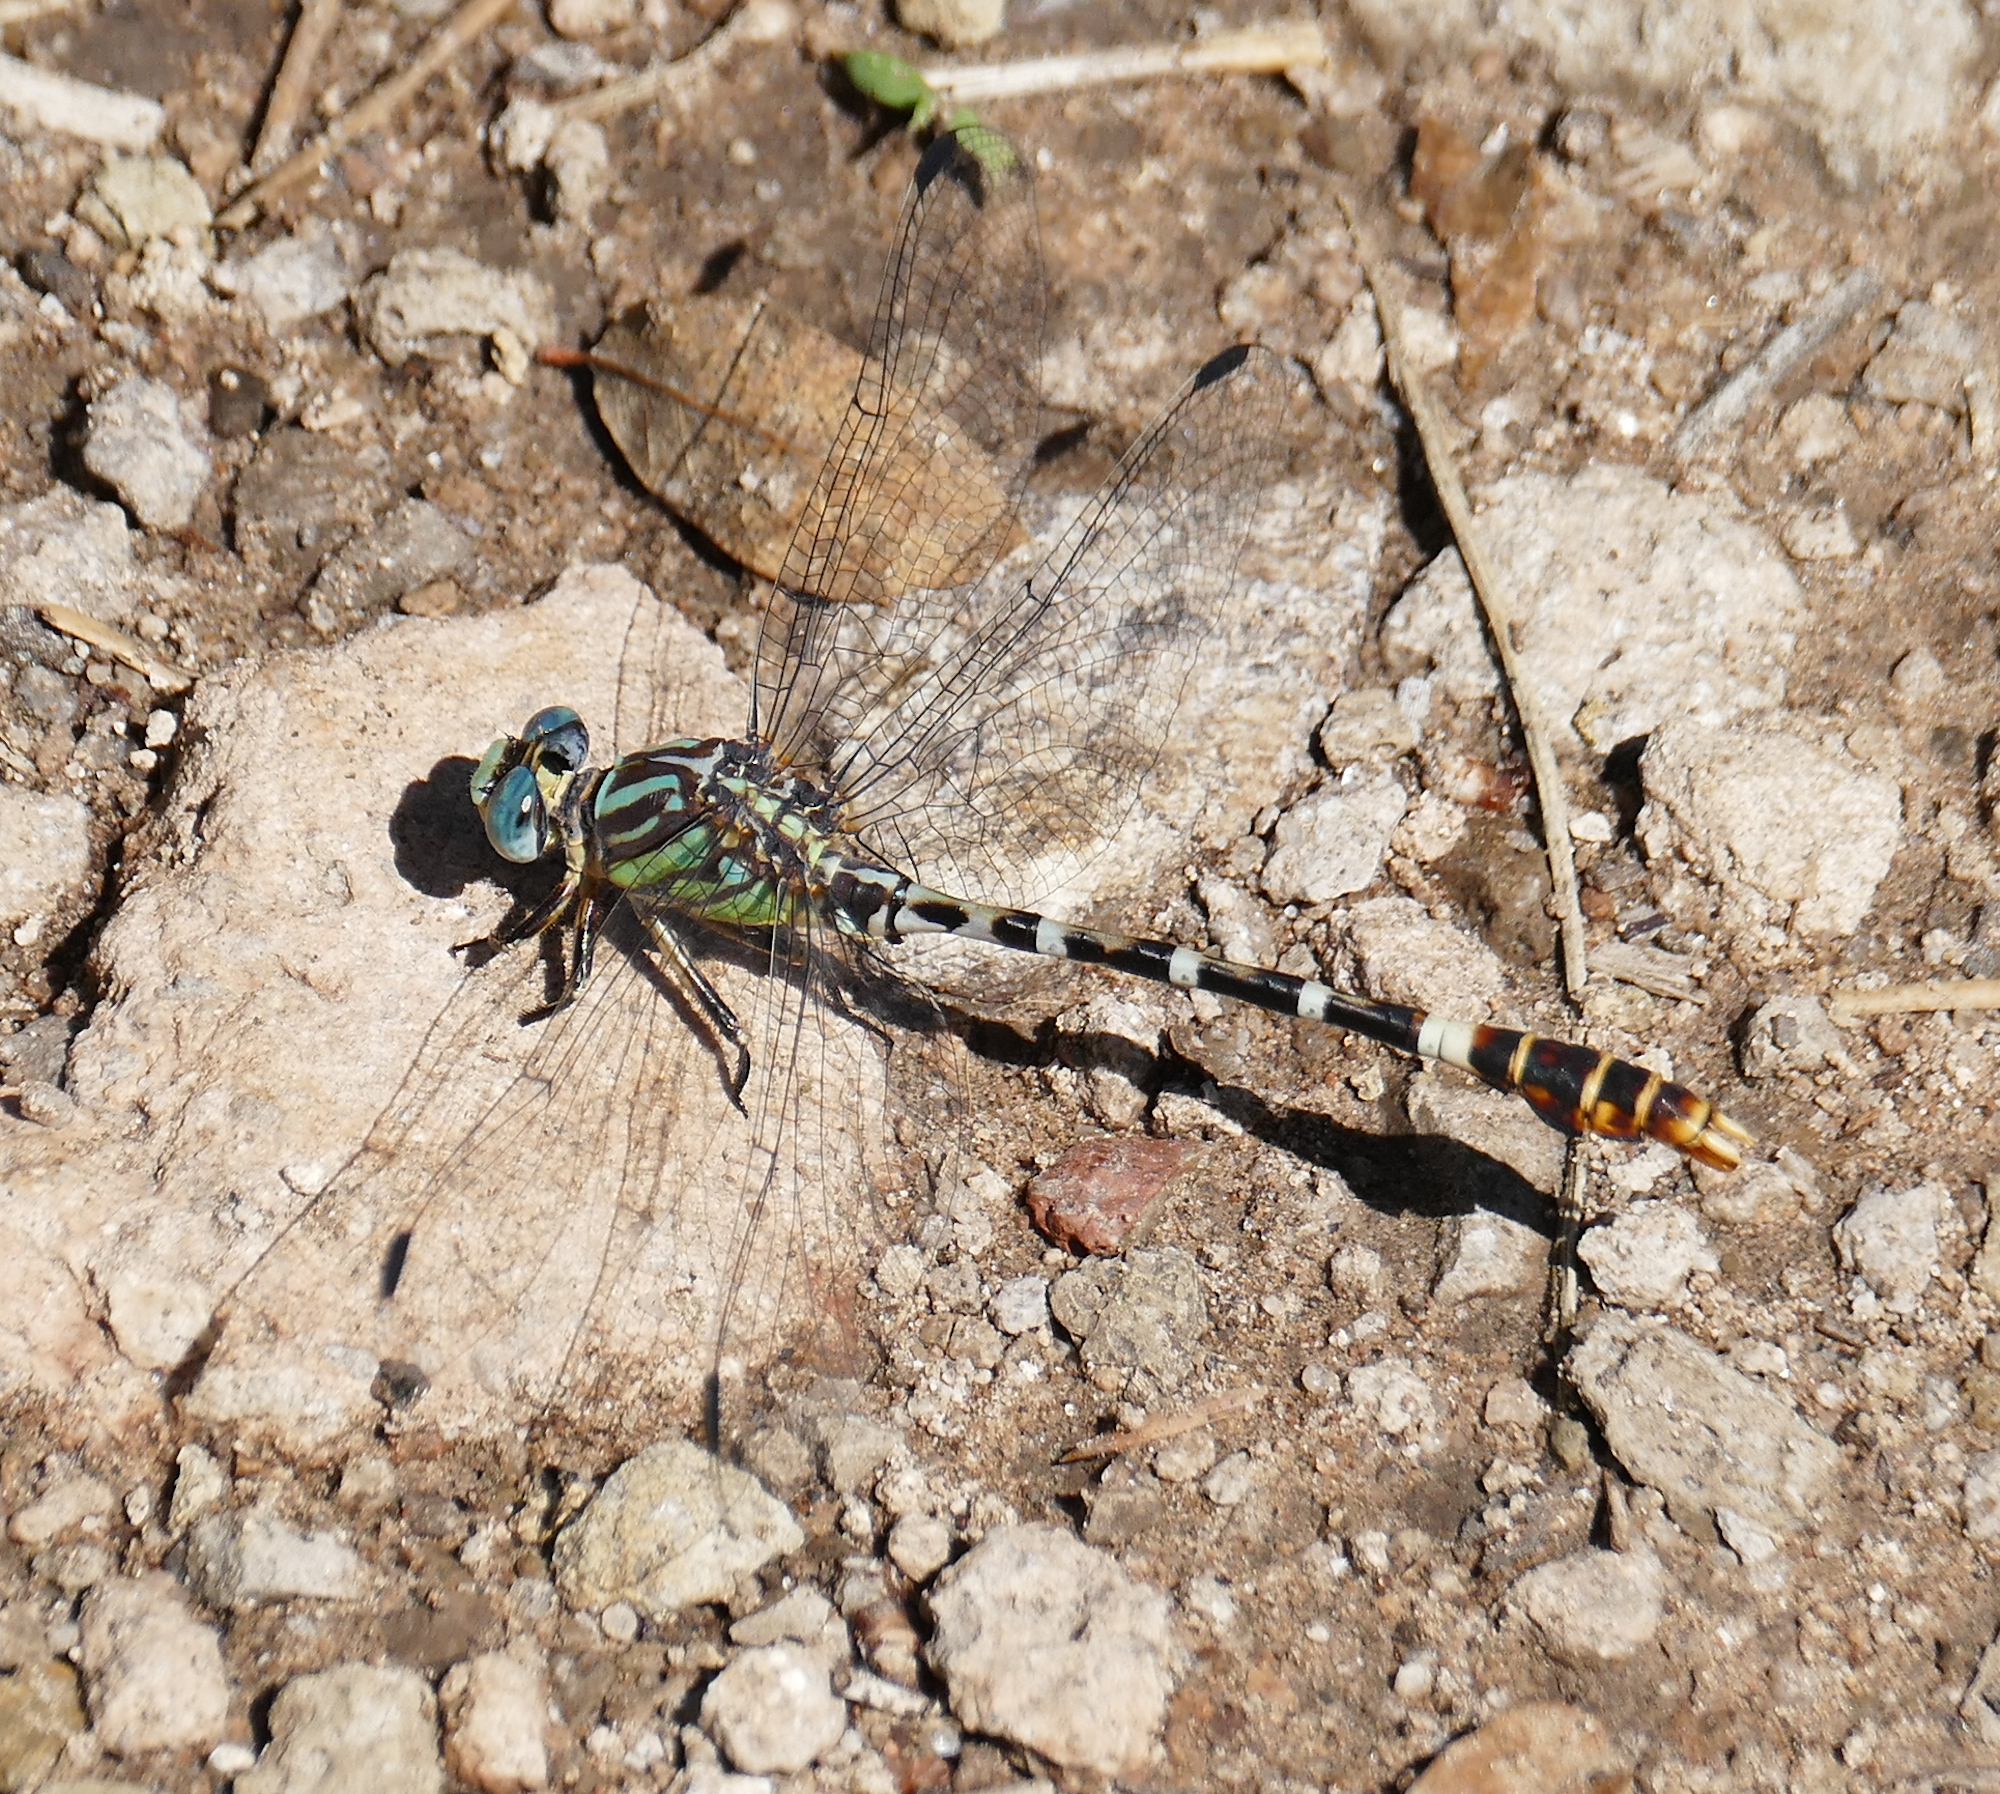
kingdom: Animalia
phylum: Arthropoda
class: Insecta
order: Odonata
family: Gomphidae
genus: Erpetogomphus
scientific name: Erpetogomphus lampropeltis
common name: Serpent ringtail
